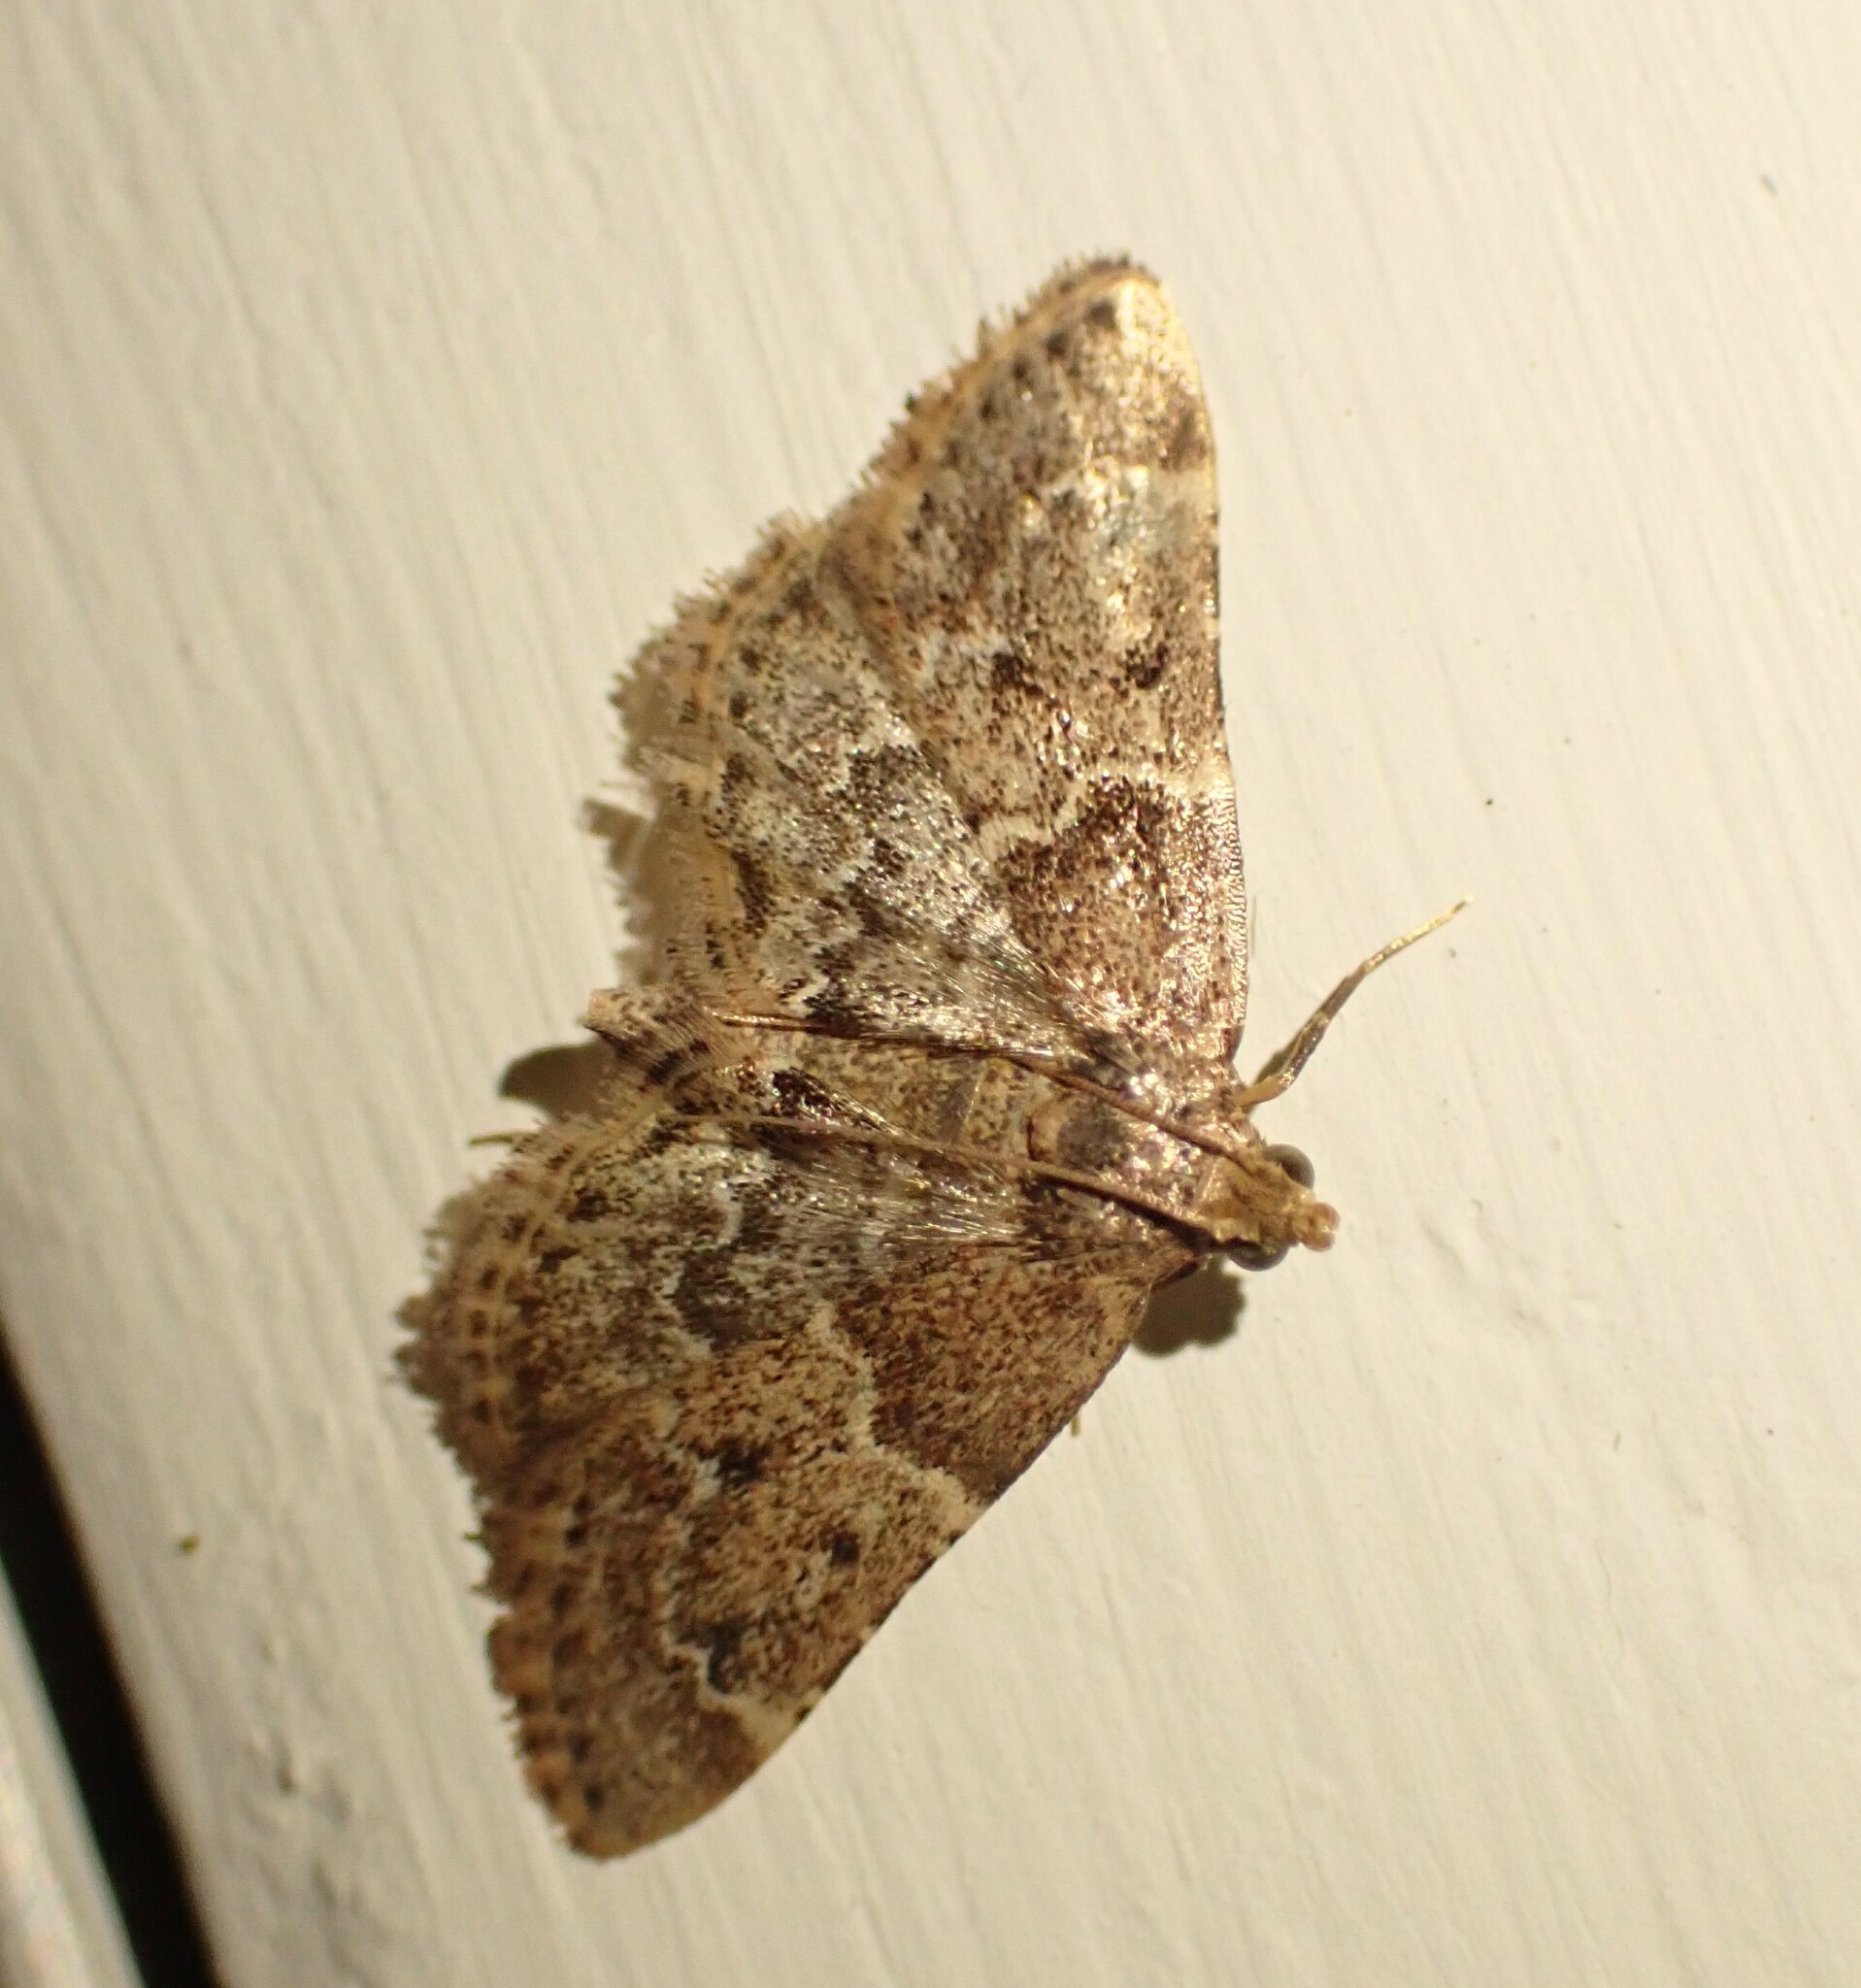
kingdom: Animalia
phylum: Arthropoda
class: Insecta
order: Lepidoptera
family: Pyralidae
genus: Pyralis
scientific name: Pyralis manihotalis
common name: Moth
